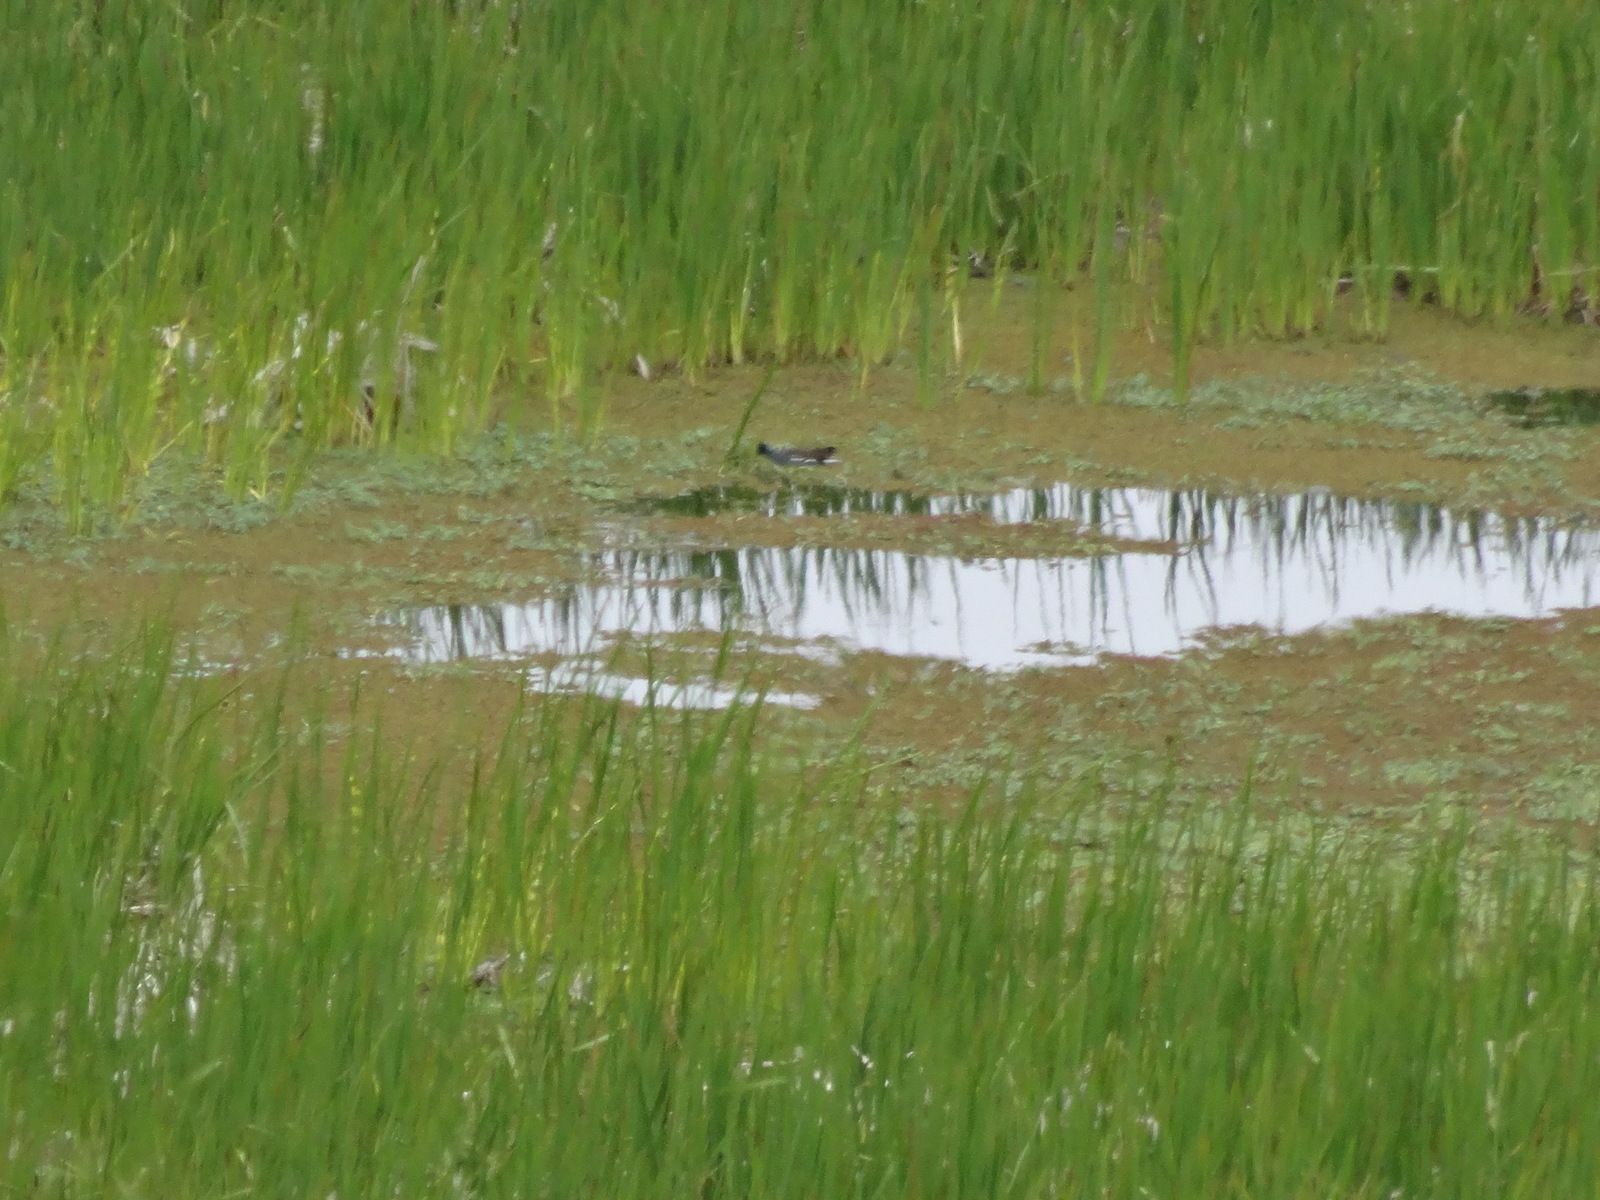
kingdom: Animalia
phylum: Chordata
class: Aves
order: Gruiformes
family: Rallidae
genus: Gallinula
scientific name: Gallinula chloropus
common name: Common moorhen
